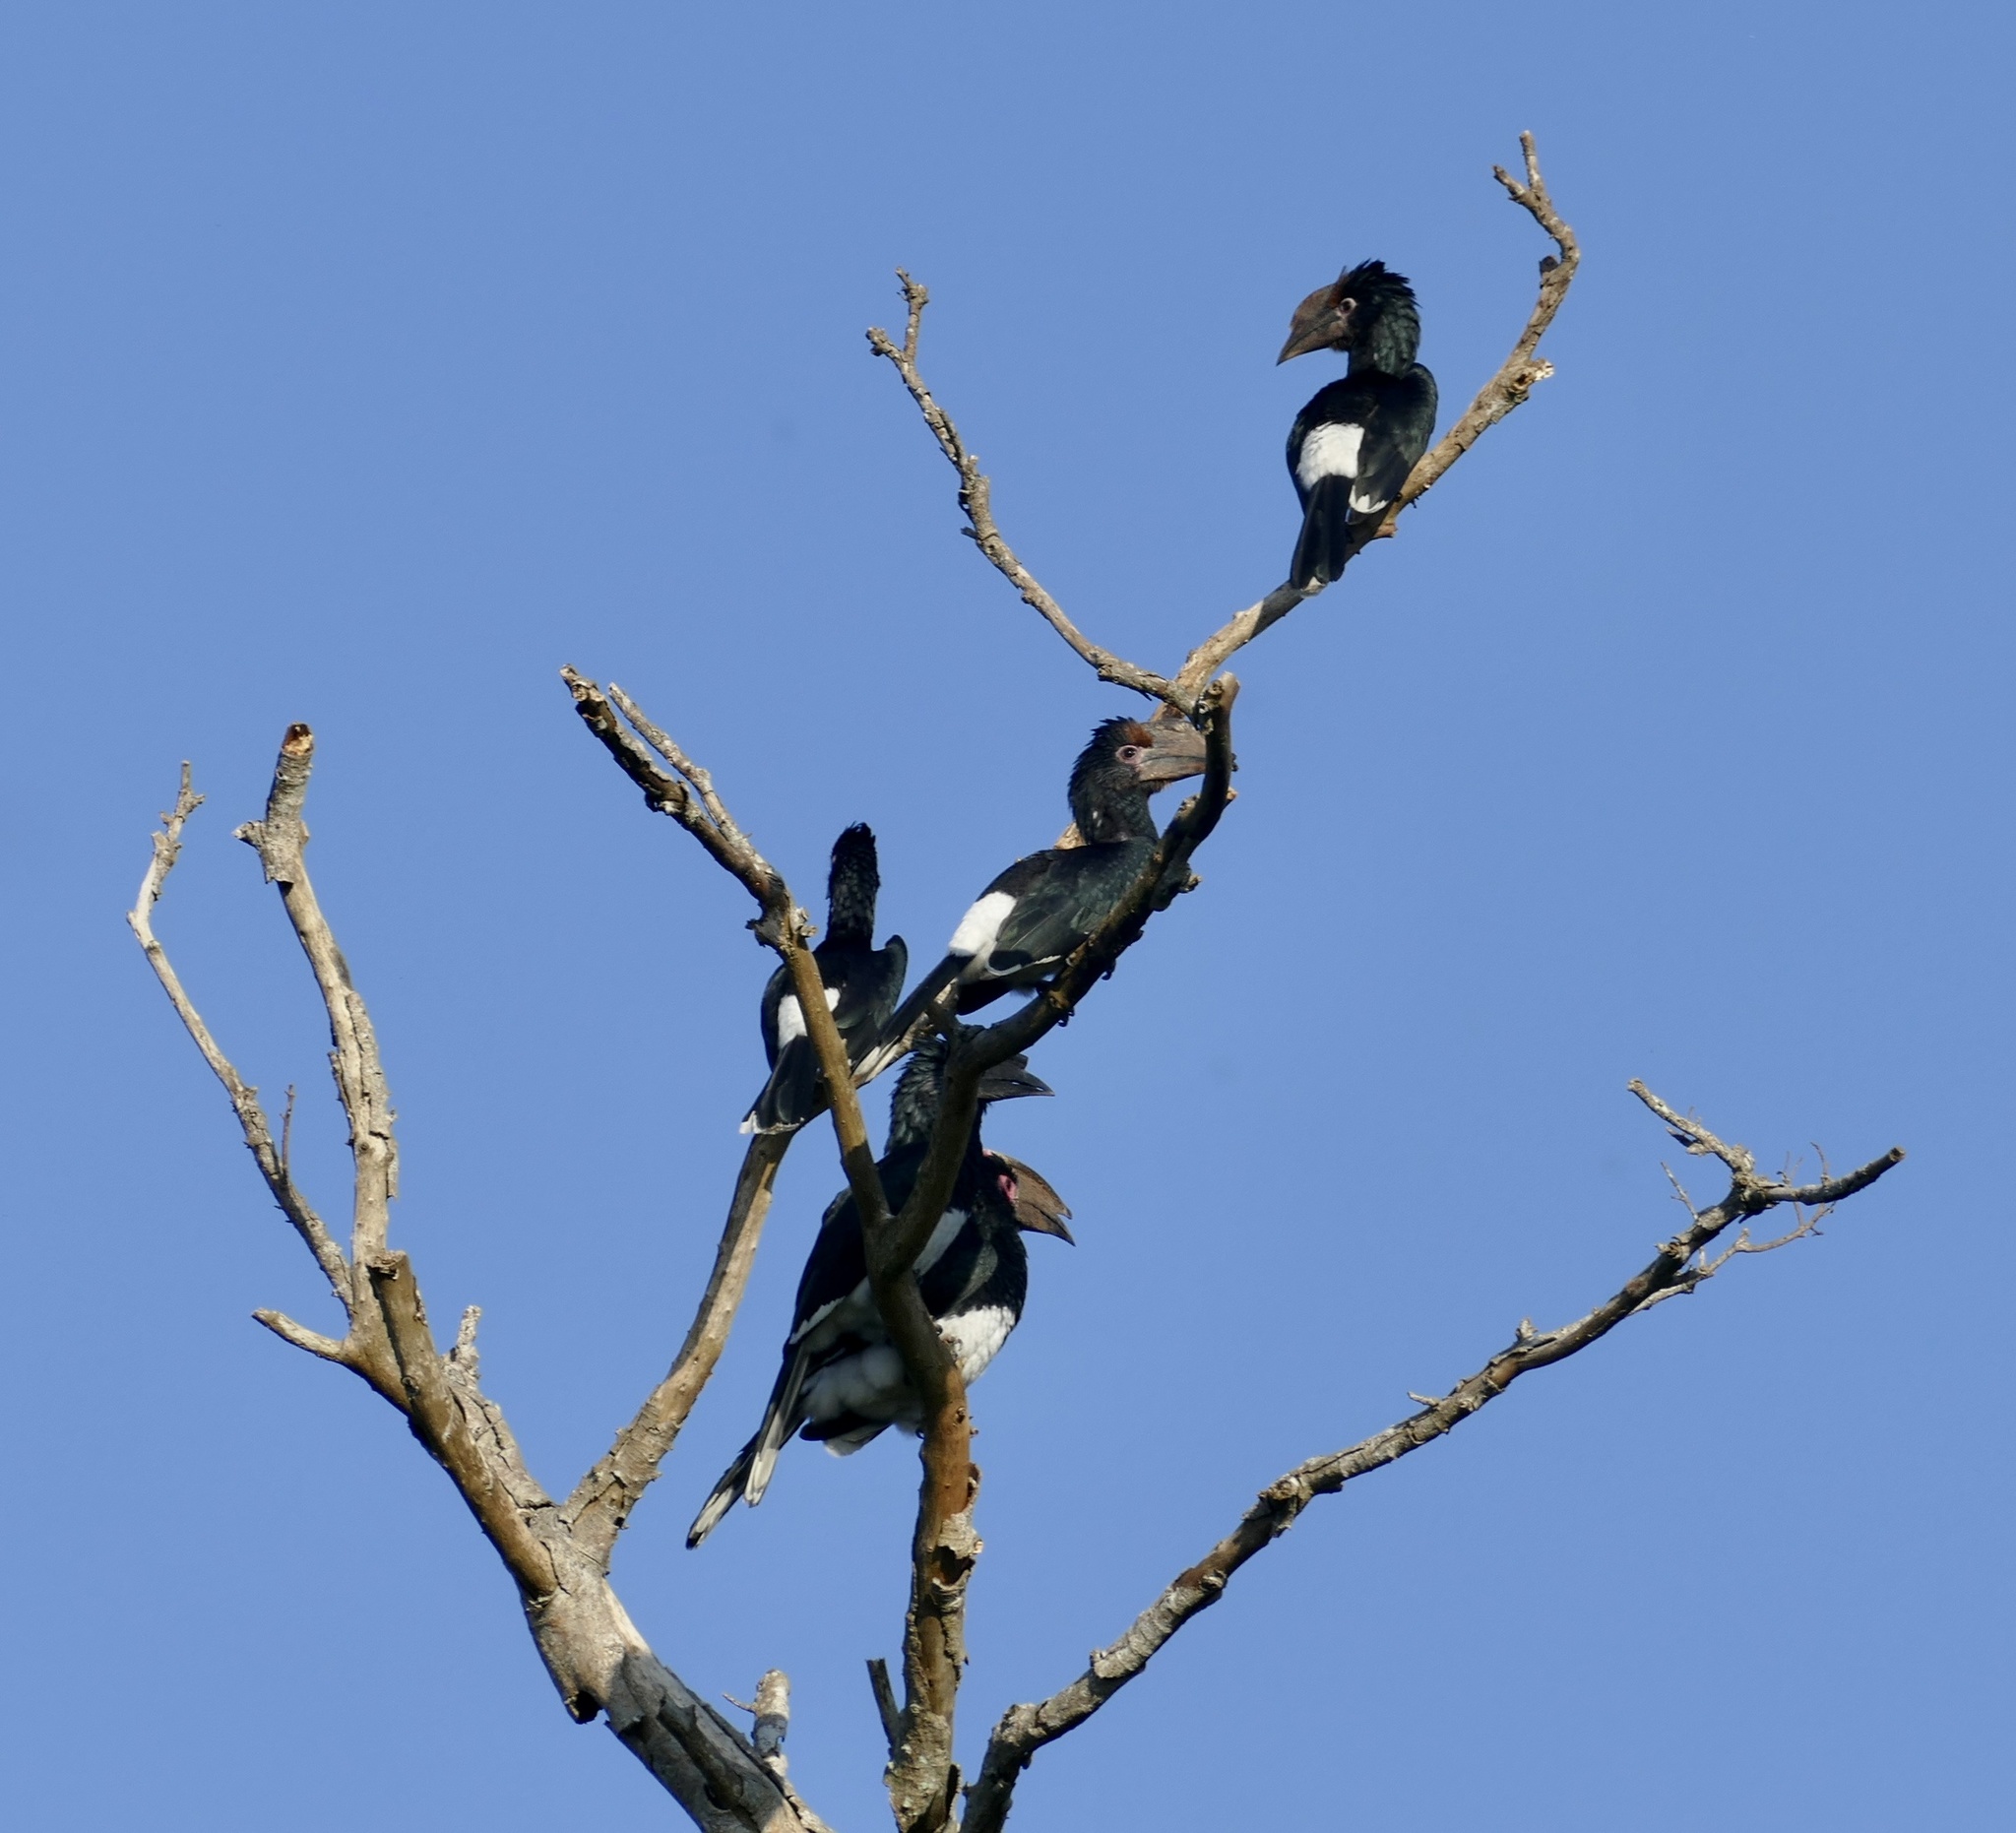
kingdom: Animalia
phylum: Chordata
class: Aves
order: Bucerotiformes
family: Bucerotidae
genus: Bycanistes
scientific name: Bycanistes bucinator
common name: Trumpeter hornbill
